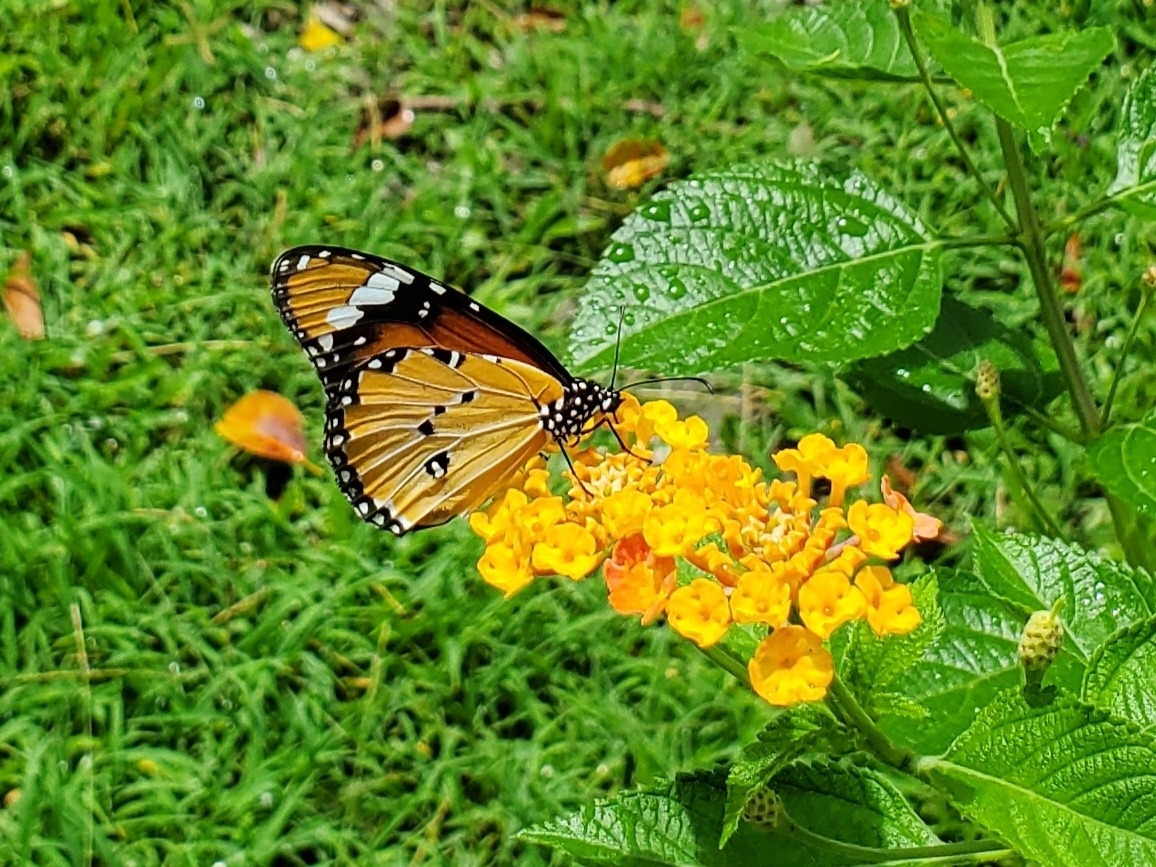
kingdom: Animalia
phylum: Arthropoda
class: Insecta
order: Lepidoptera
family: Nymphalidae
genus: Danaus
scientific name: Danaus chrysippus
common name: Plain tiger
